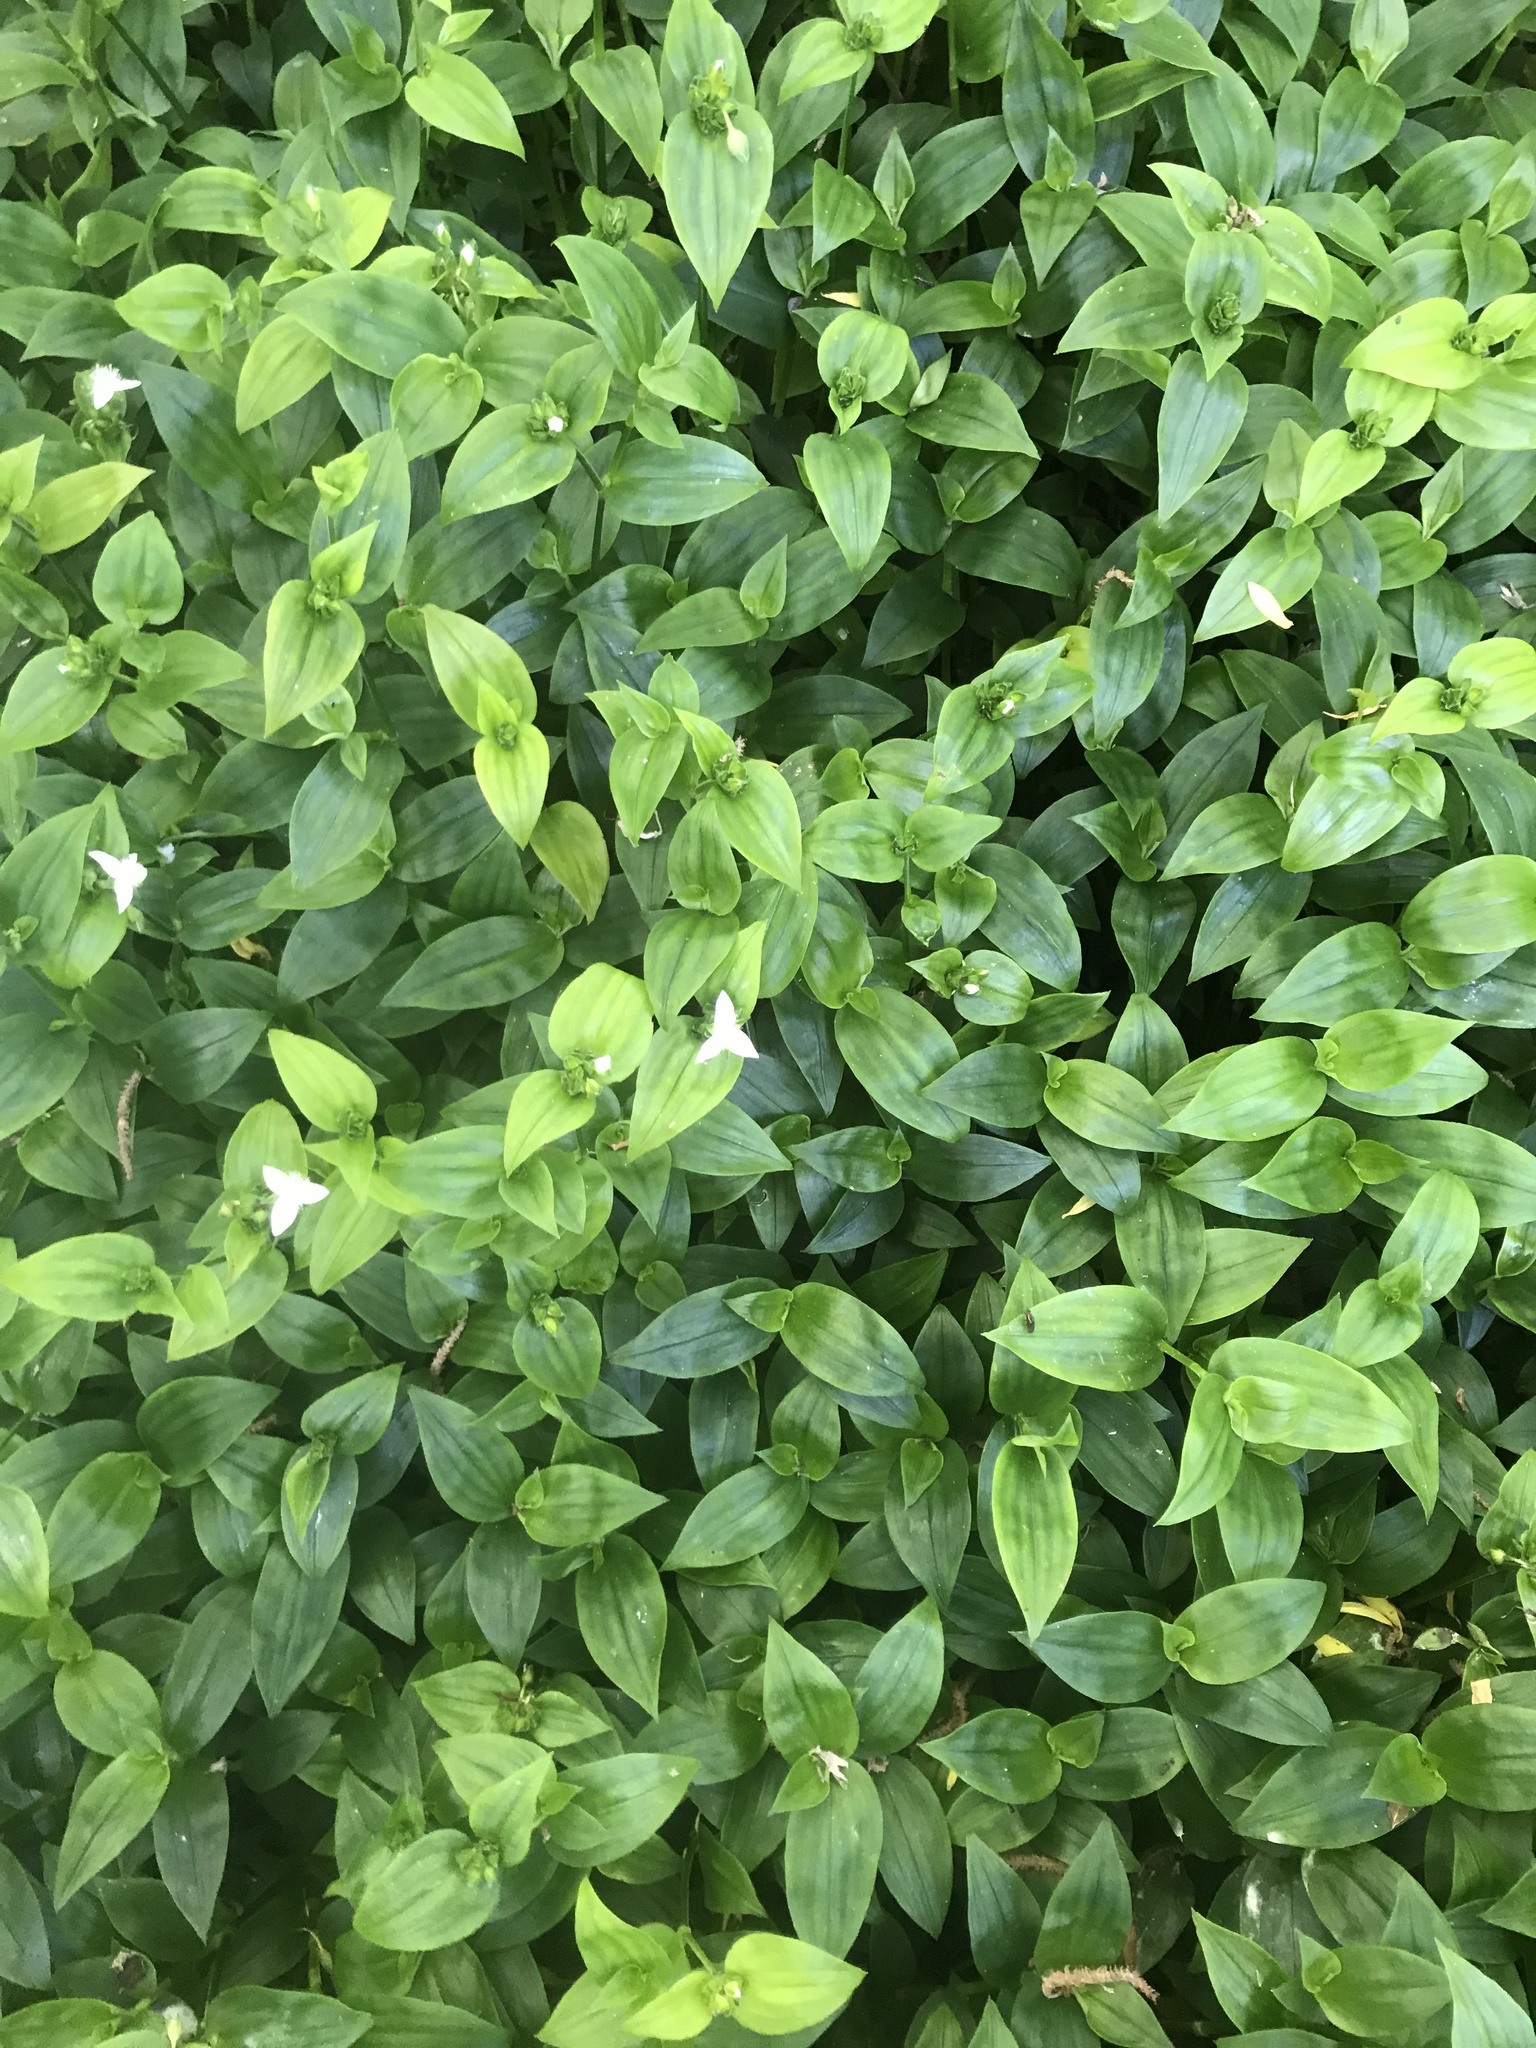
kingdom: Plantae
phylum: Tracheophyta
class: Liliopsida
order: Commelinales
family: Commelinaceae
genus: Tradescantia
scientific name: Tradescantia fluminensis
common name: Wandering-jew
